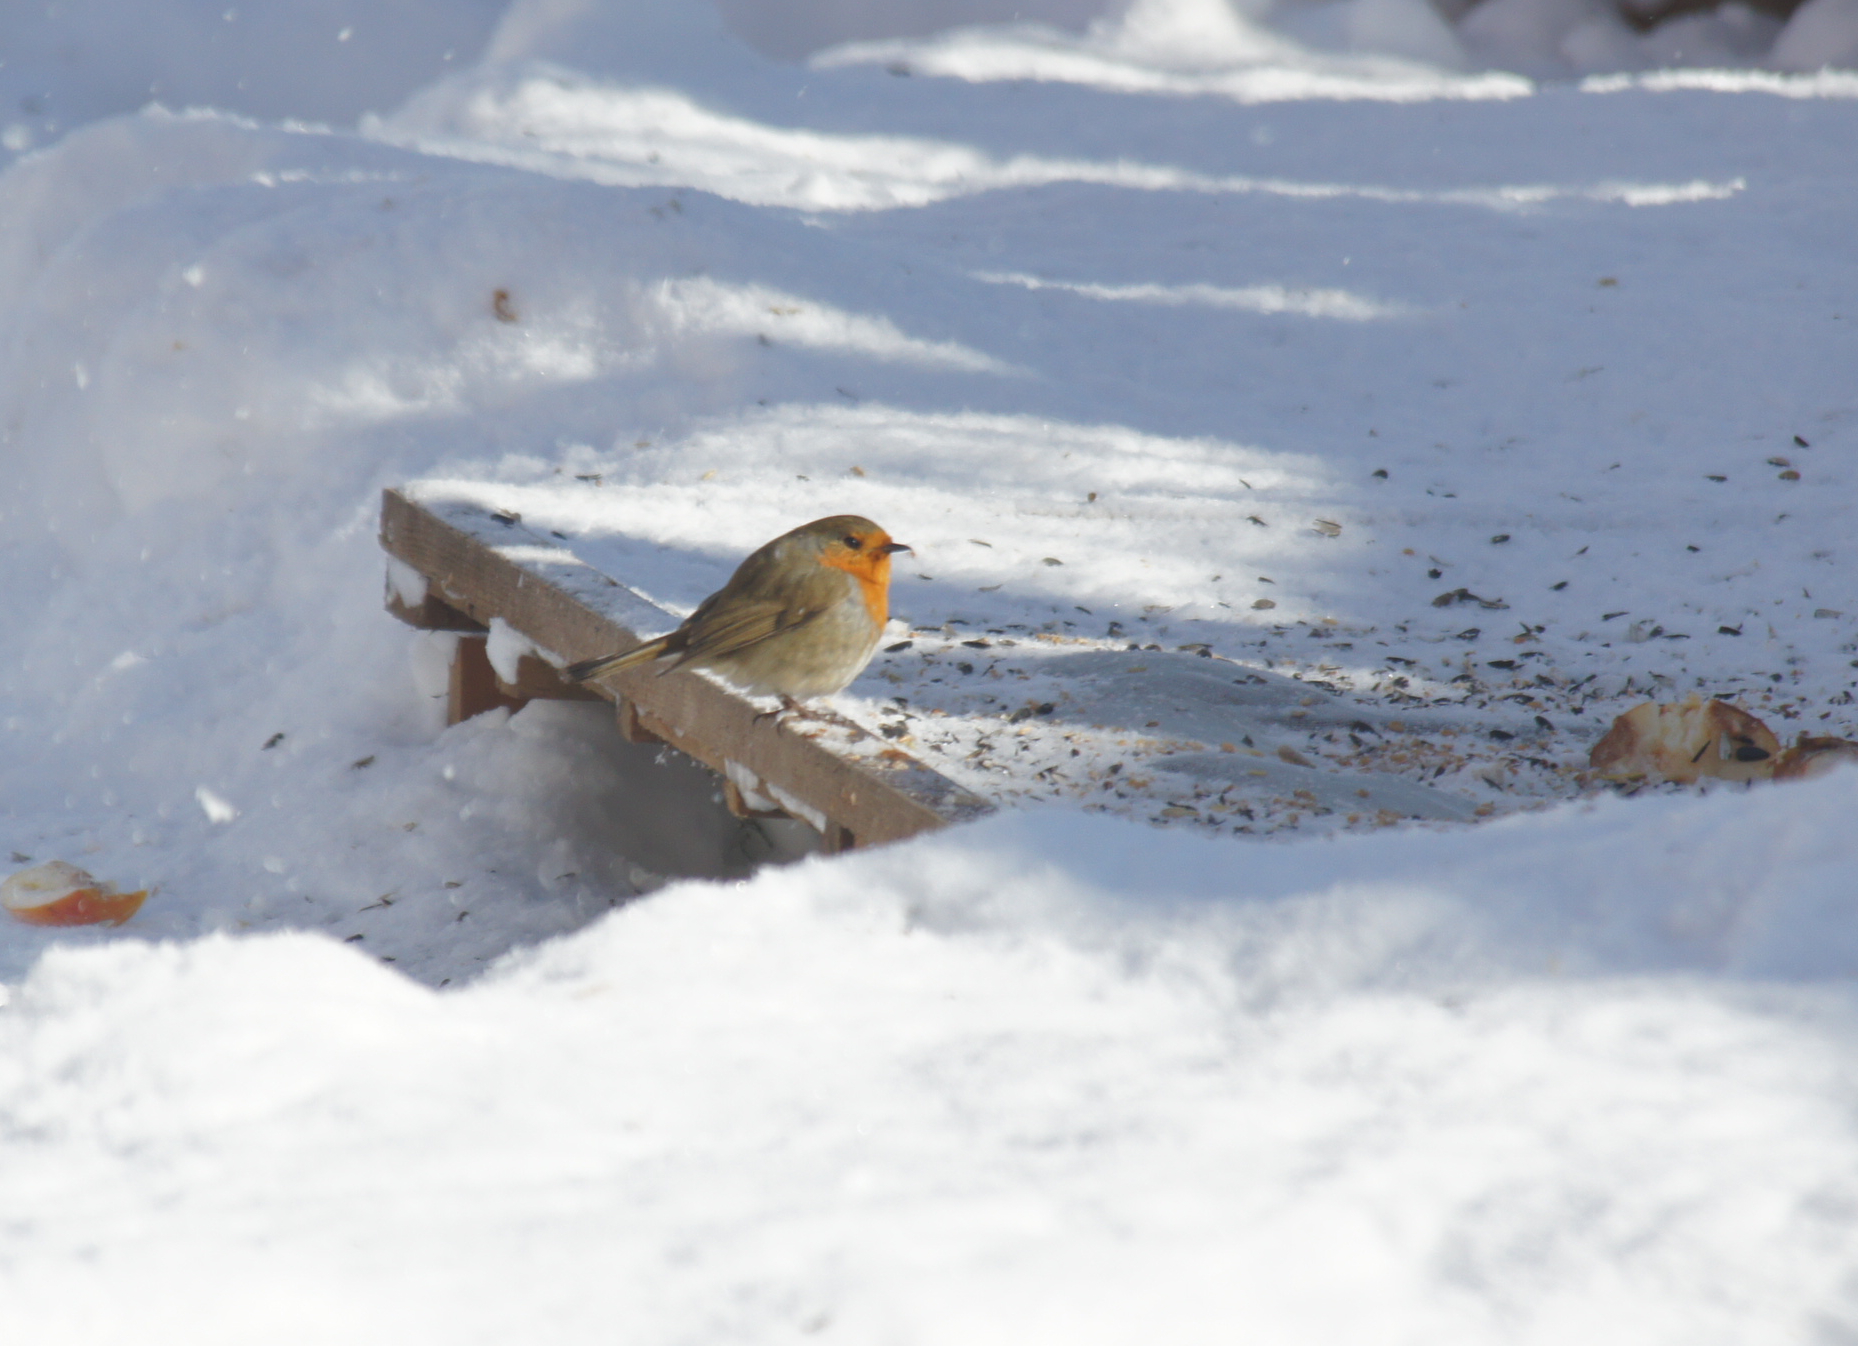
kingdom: Animalia
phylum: Chordata
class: Aves
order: Passeriformes
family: Muscicapidae
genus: Erithacus
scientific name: Erithacus rubecula
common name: European robin
